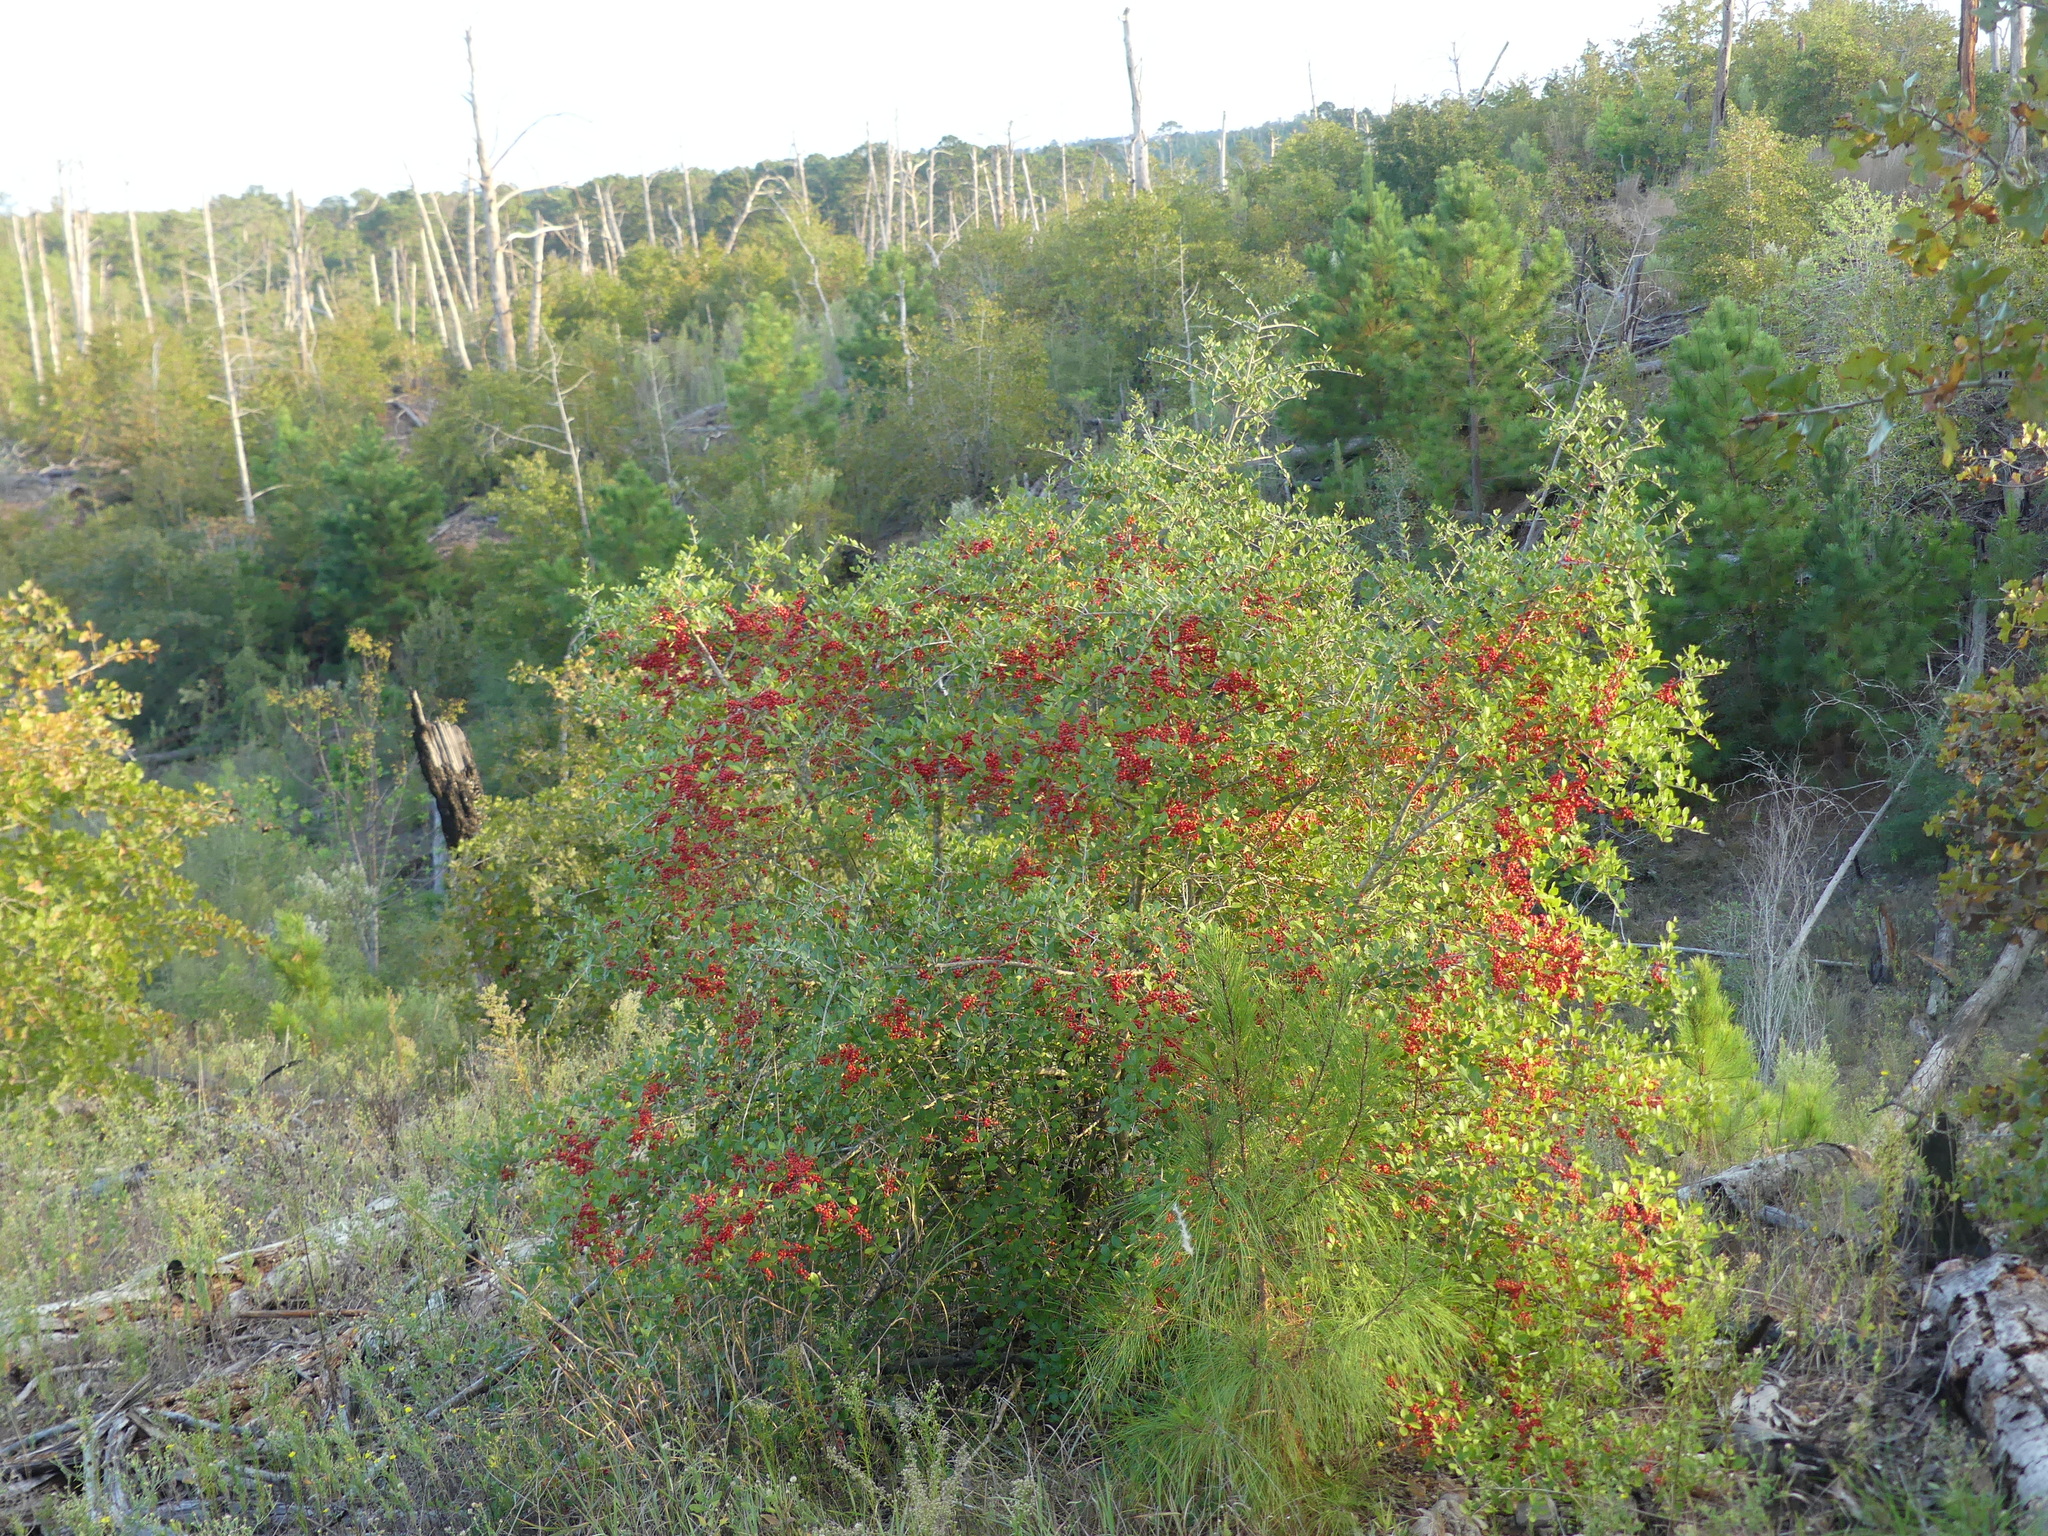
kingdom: Plantae
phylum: Tracheophyta
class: Magnoliopsida
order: Aquifoliales
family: Aquifoliaceae
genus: Ilex
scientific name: Ilex vomitoria
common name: Yaupon holly
